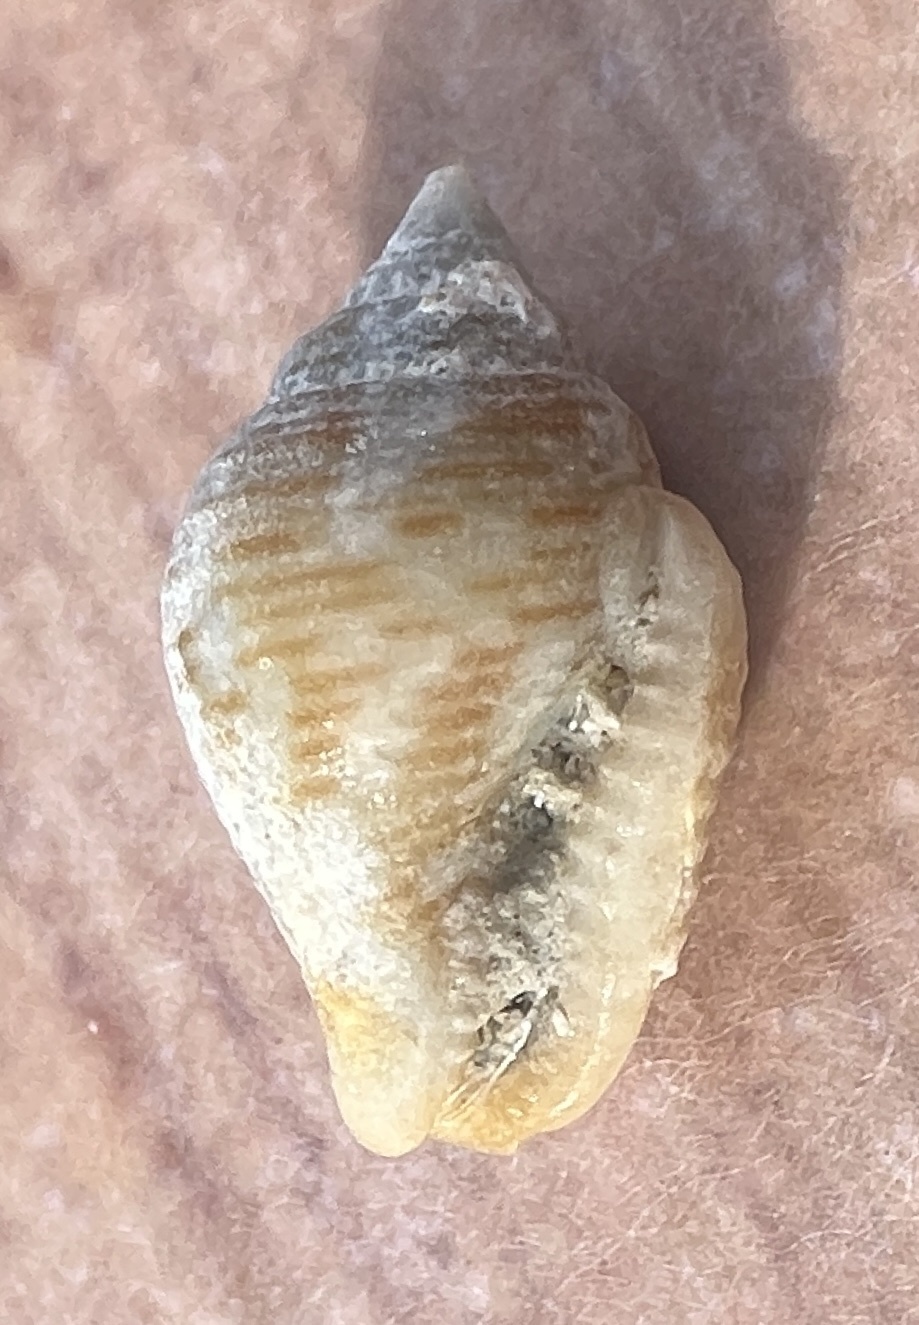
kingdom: Animalia
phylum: Mollusca
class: Gastropoda
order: Neogastropoda
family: Columbellidae
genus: Columbella
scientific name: Columbella mercatoria
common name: West indian dovesnail
